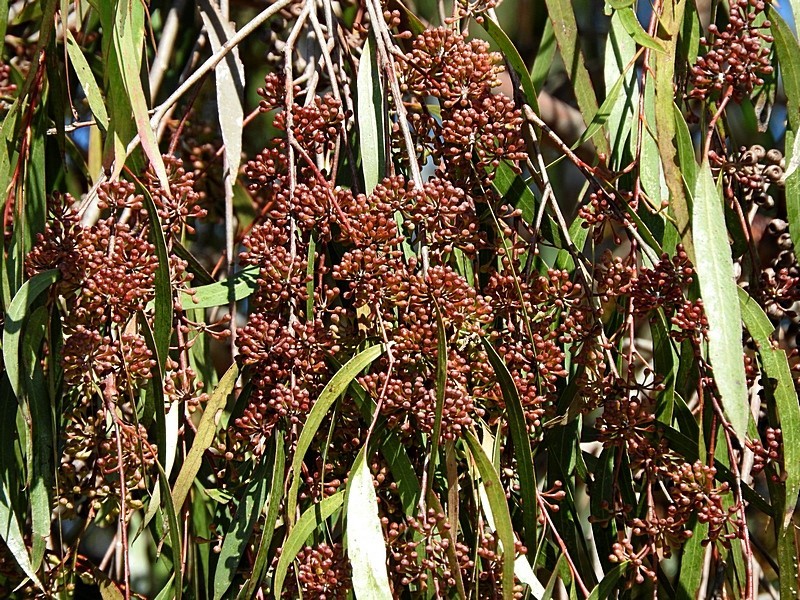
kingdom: Plantae
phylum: Tracheophyta
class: Magnoliopsida
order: Myrtales
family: Myrtaceae
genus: Eucalyptus
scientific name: Eucalyptus elata
